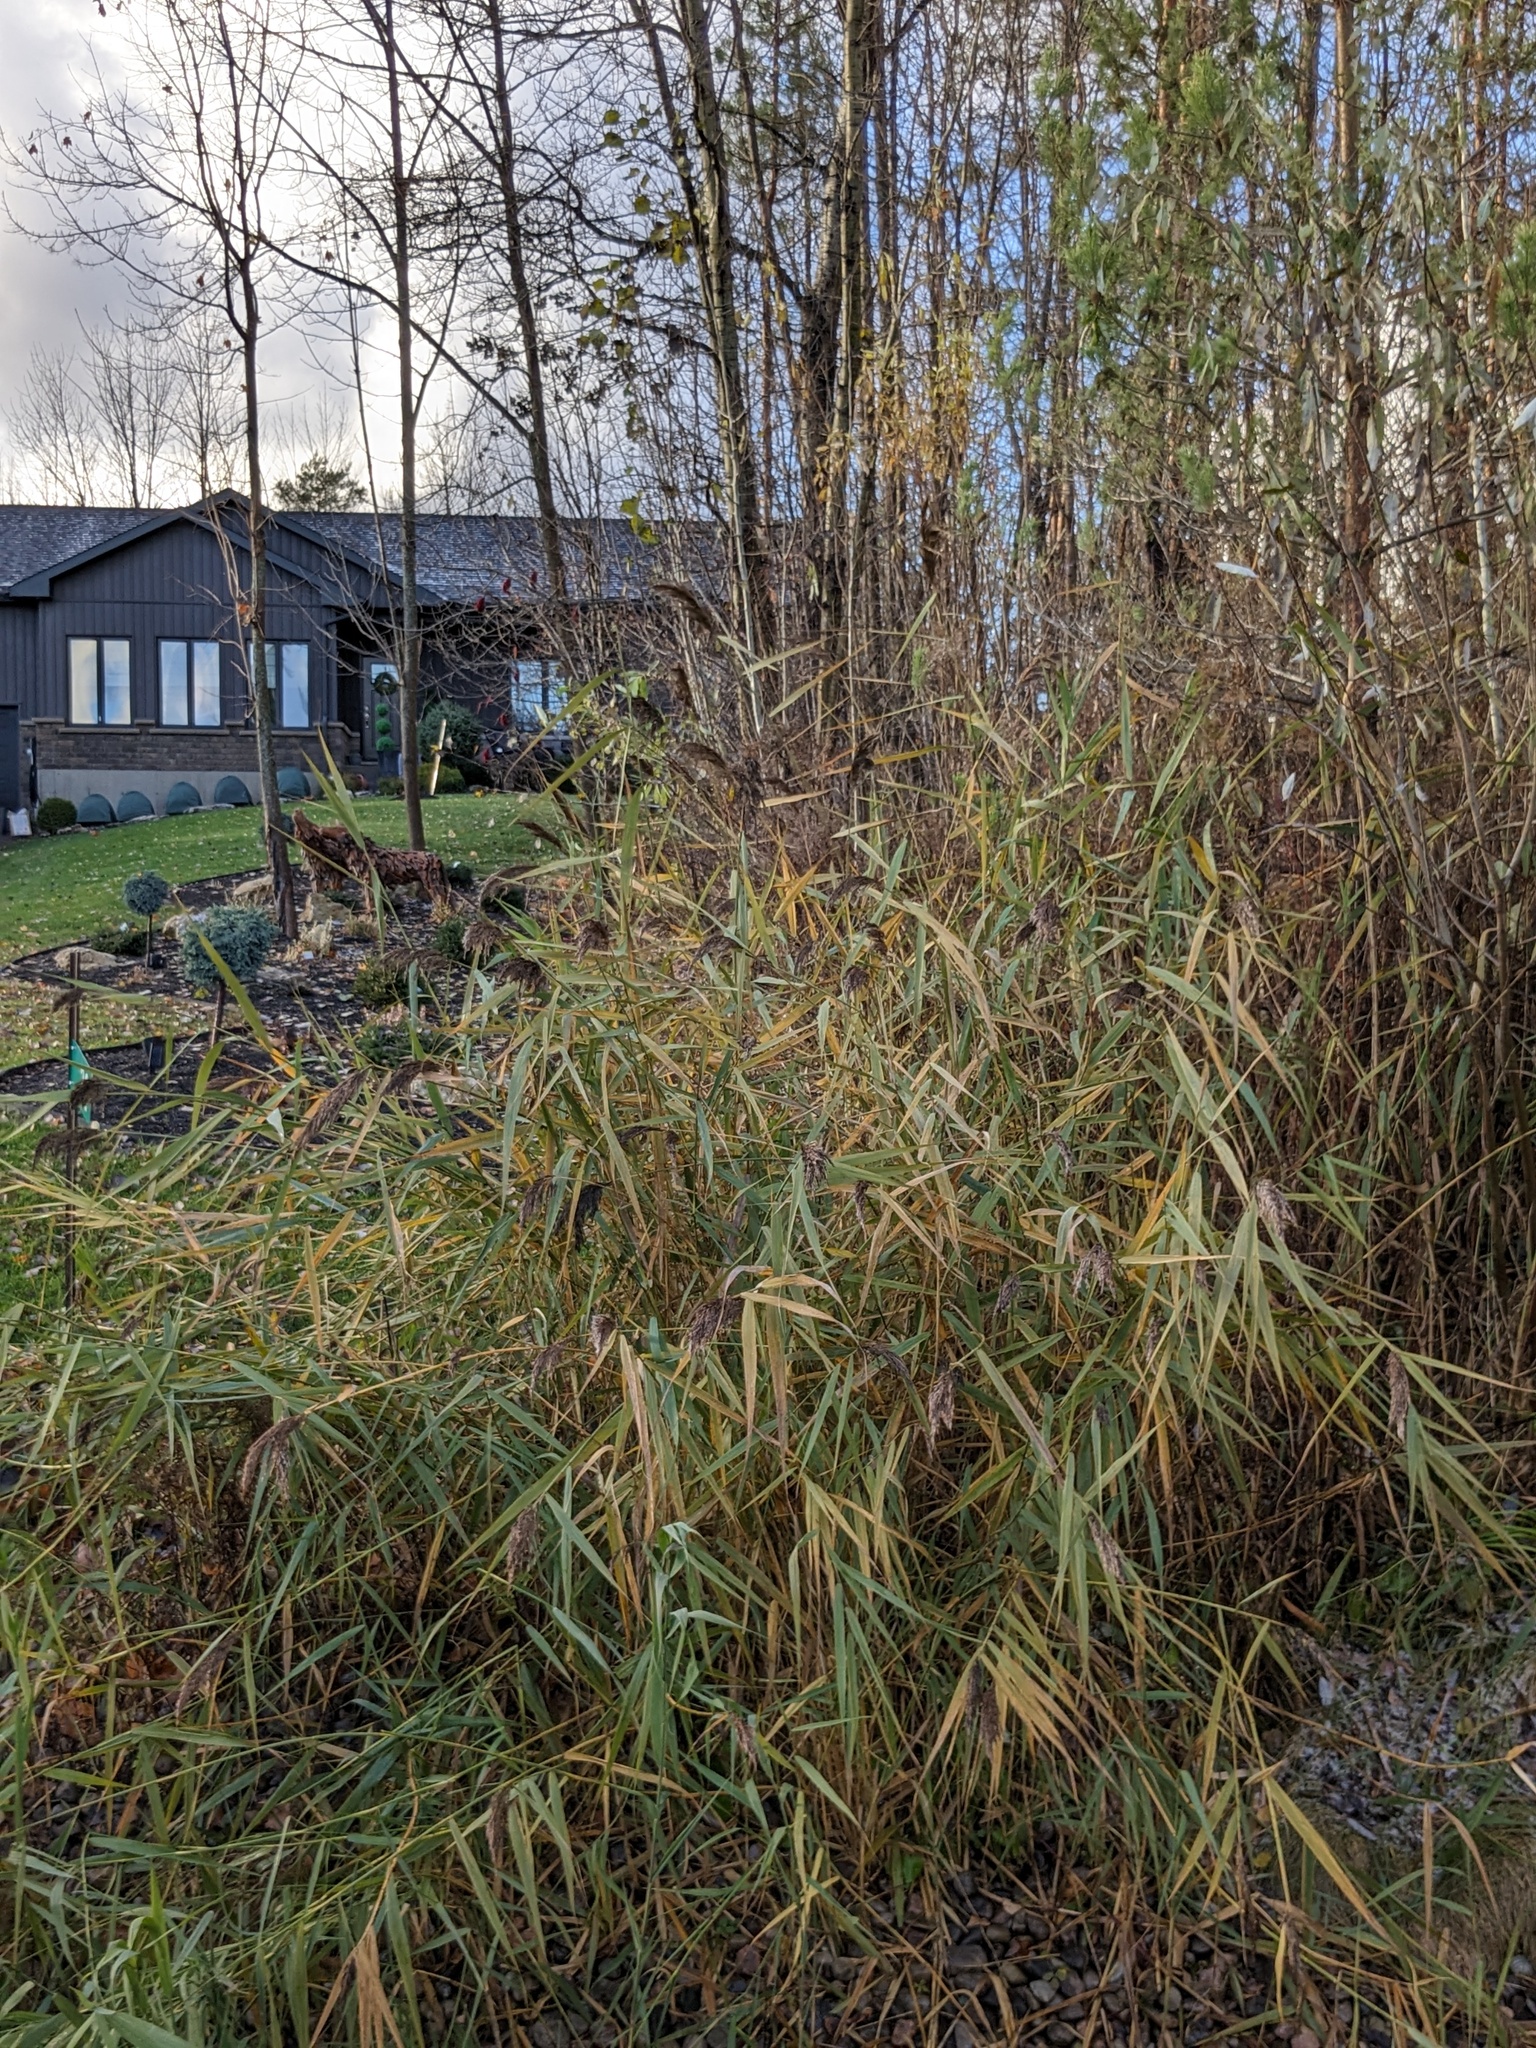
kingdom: Plantae
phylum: Tracheophyta
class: Liliopsida
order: Poales
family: Poaceae
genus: Phragmites
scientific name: Phragmites australis
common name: Common reed
